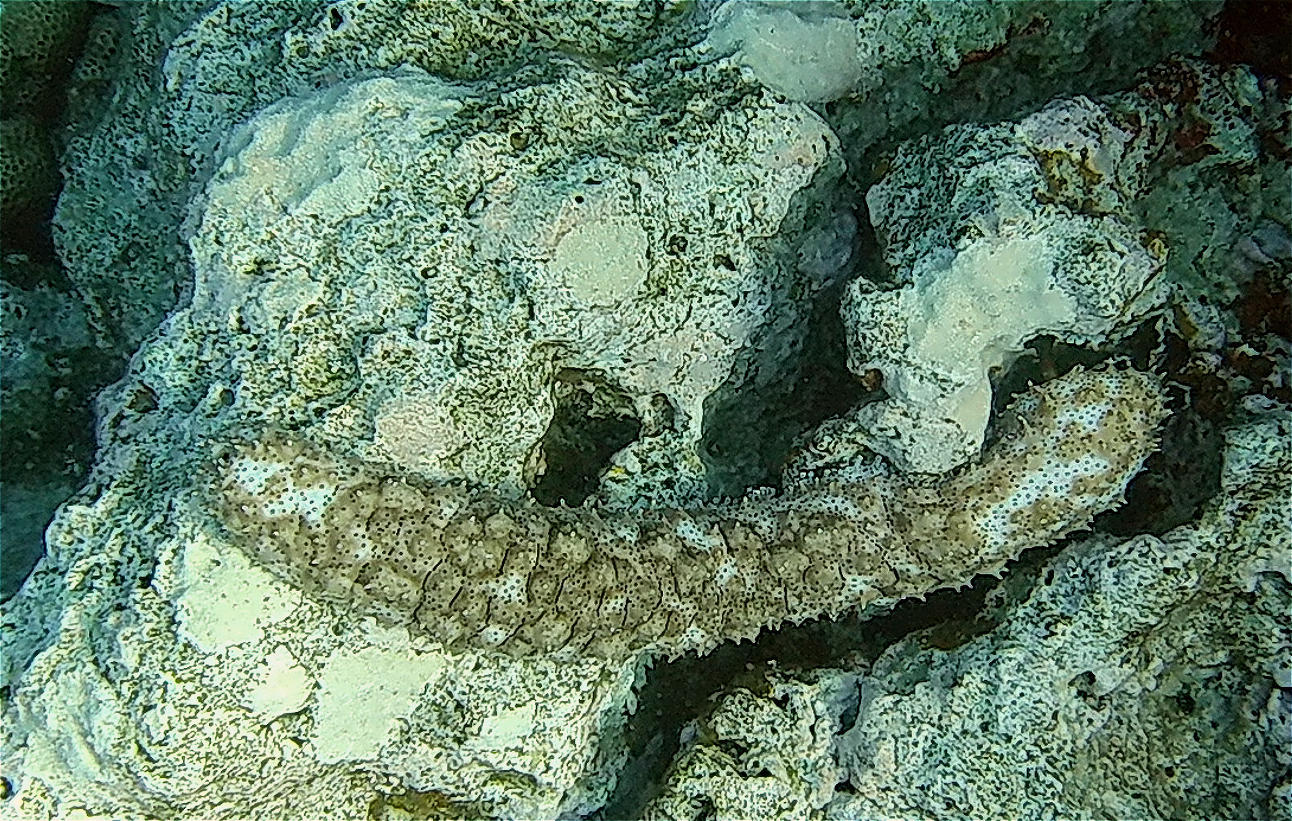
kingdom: Animalia
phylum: Echinodermata
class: Holothuroidea
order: Holothuriida
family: Holothuriidae
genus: Pearsonothuria
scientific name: Pearsonothuria graeffei
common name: Blackspotted sea cucumber
